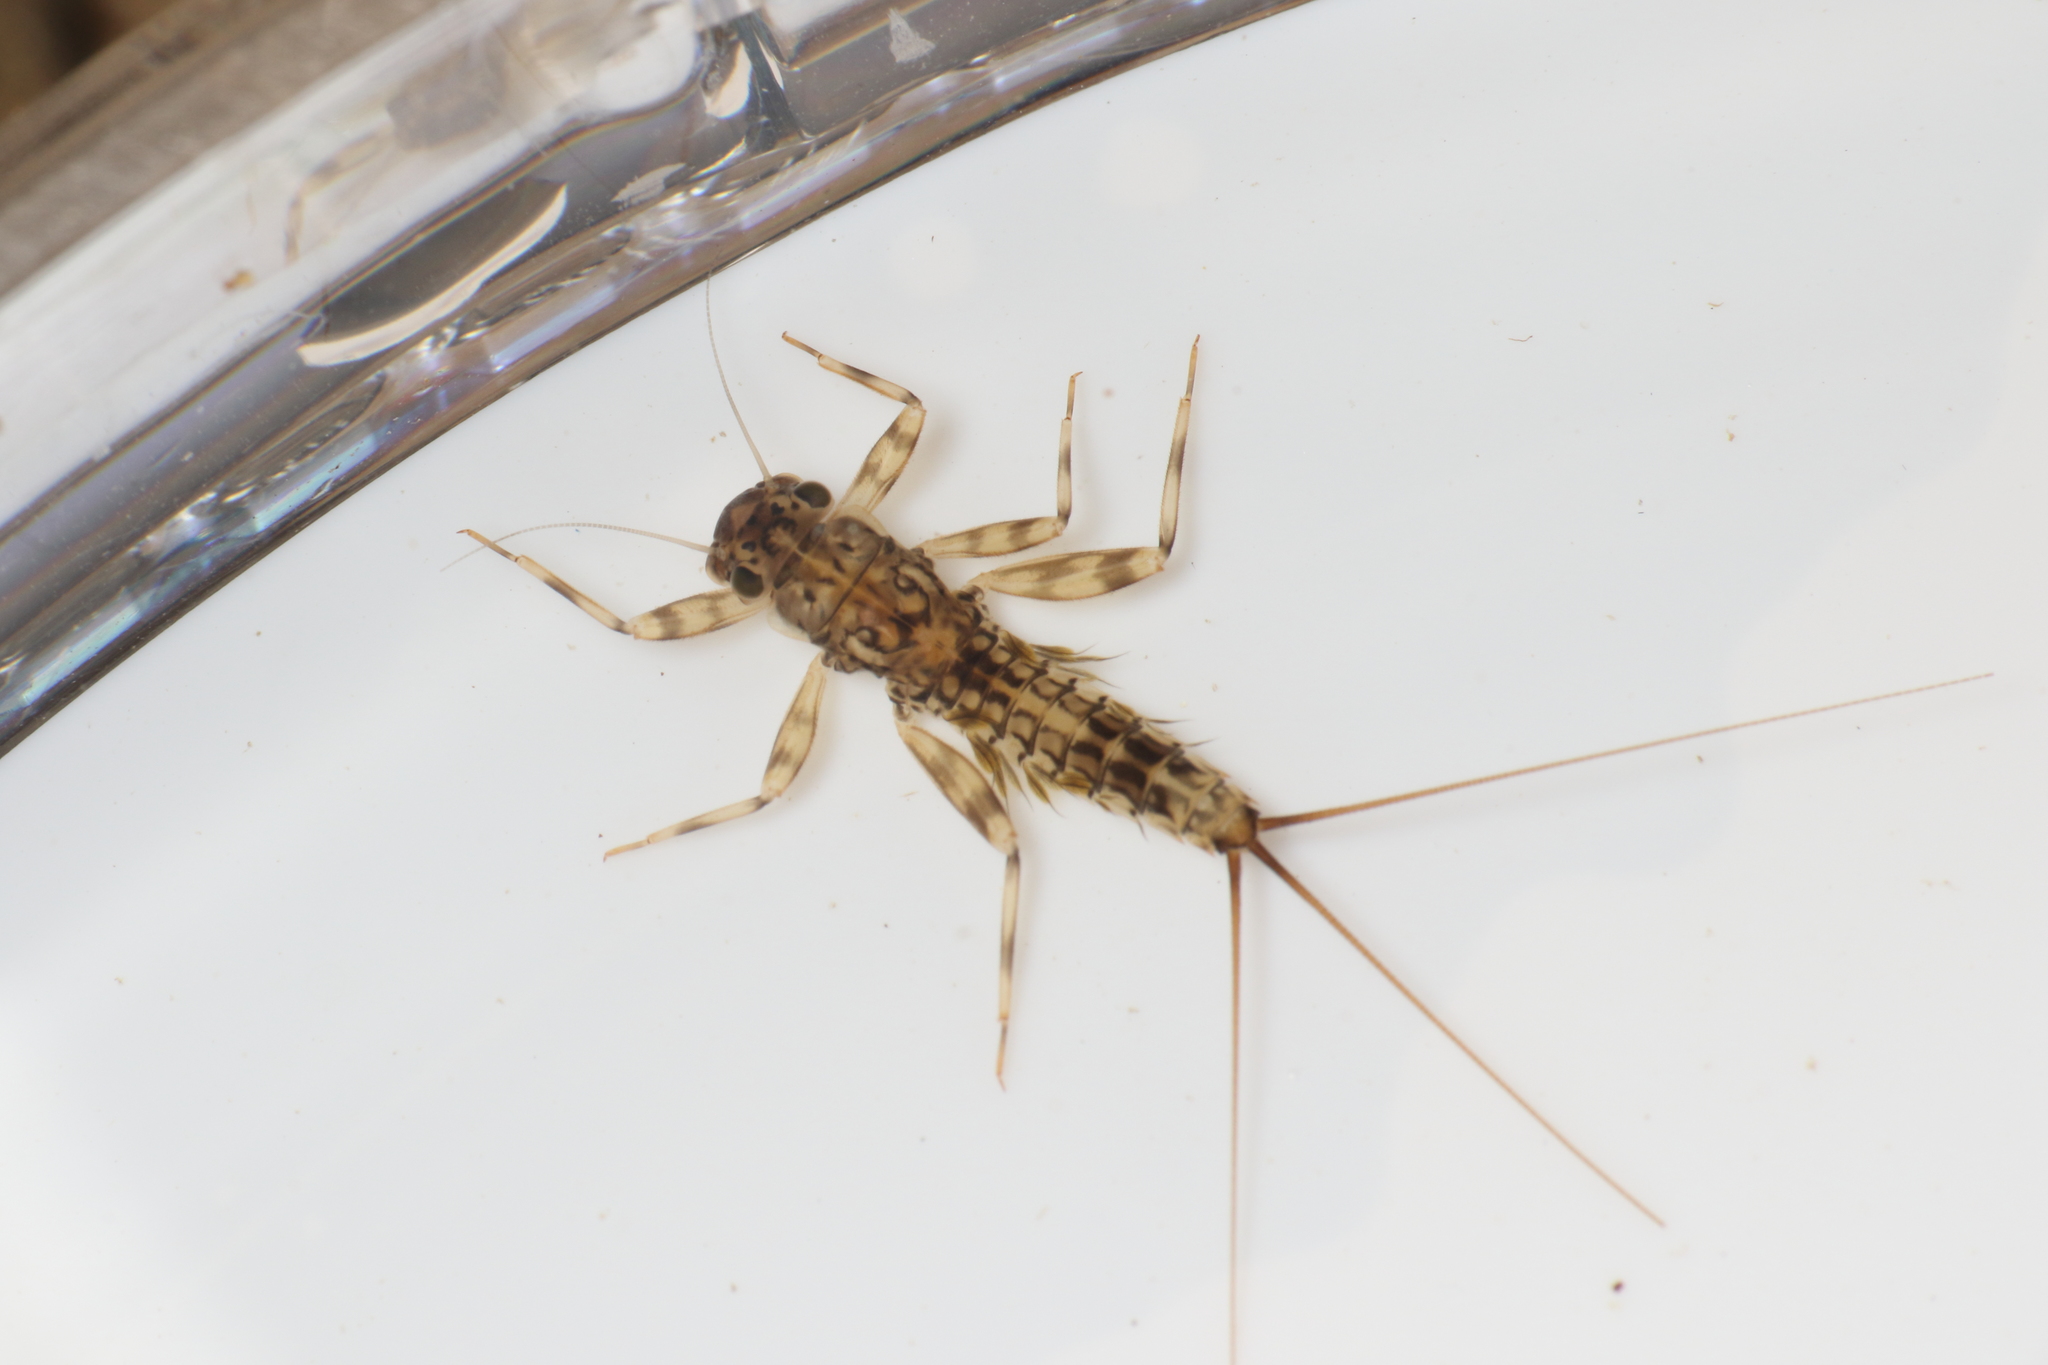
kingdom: Animalia
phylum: Arthropoda
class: Insecta
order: Ephemeroptera
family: Leptophlebiidae
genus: Zephlebia
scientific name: Zephlebia versicolor
